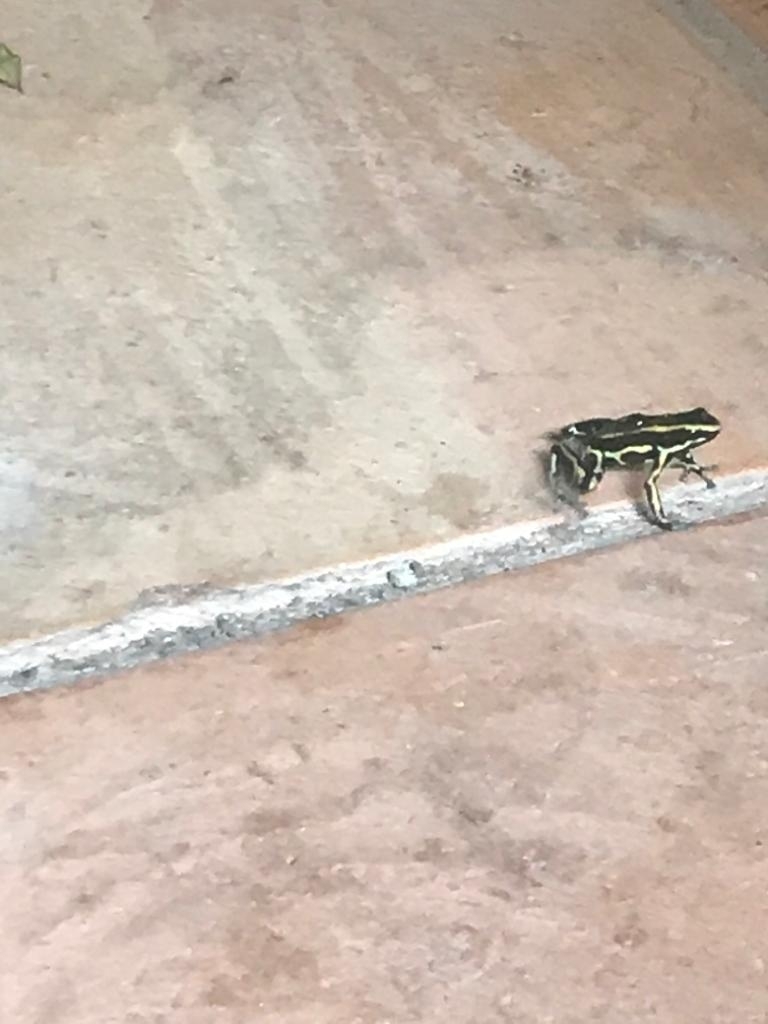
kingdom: Animalia
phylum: Chordata
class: Amphibia
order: Anura
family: Dendrobatidae
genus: Dendrobates
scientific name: Dendrobates truncatus
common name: Yellow-striped poison frog
